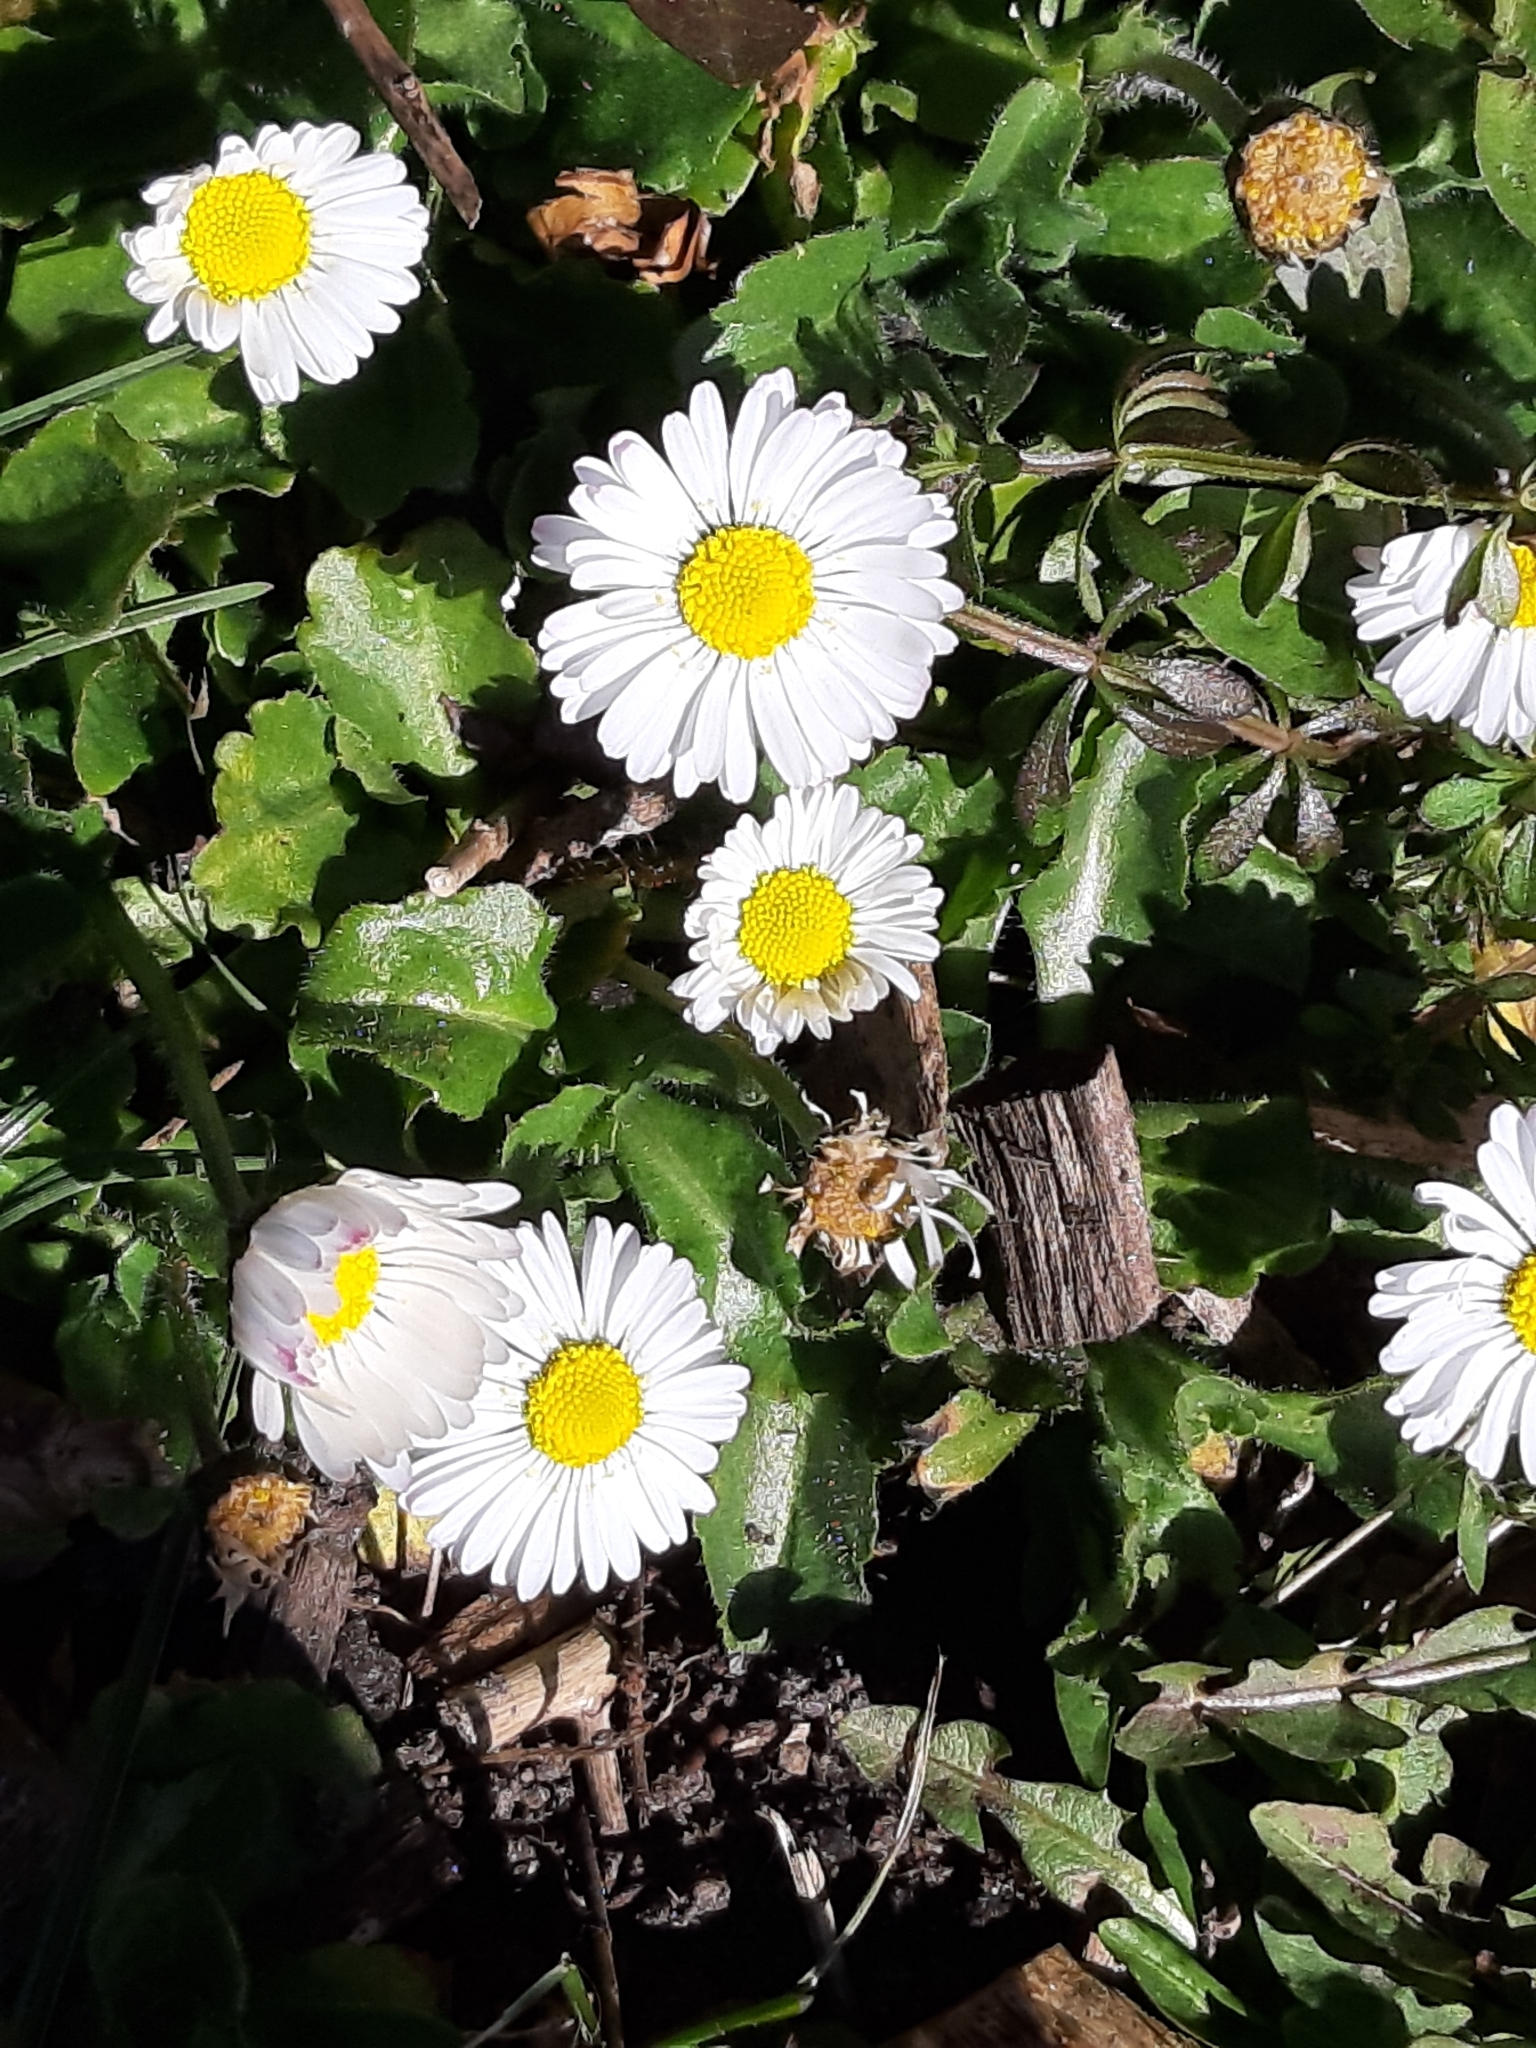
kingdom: Plantae
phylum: Tracheophyta
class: Magnoliopsida
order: Asterales
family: Asteraceae
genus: Bellis
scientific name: Bellis perennis
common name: Lawndaisy
